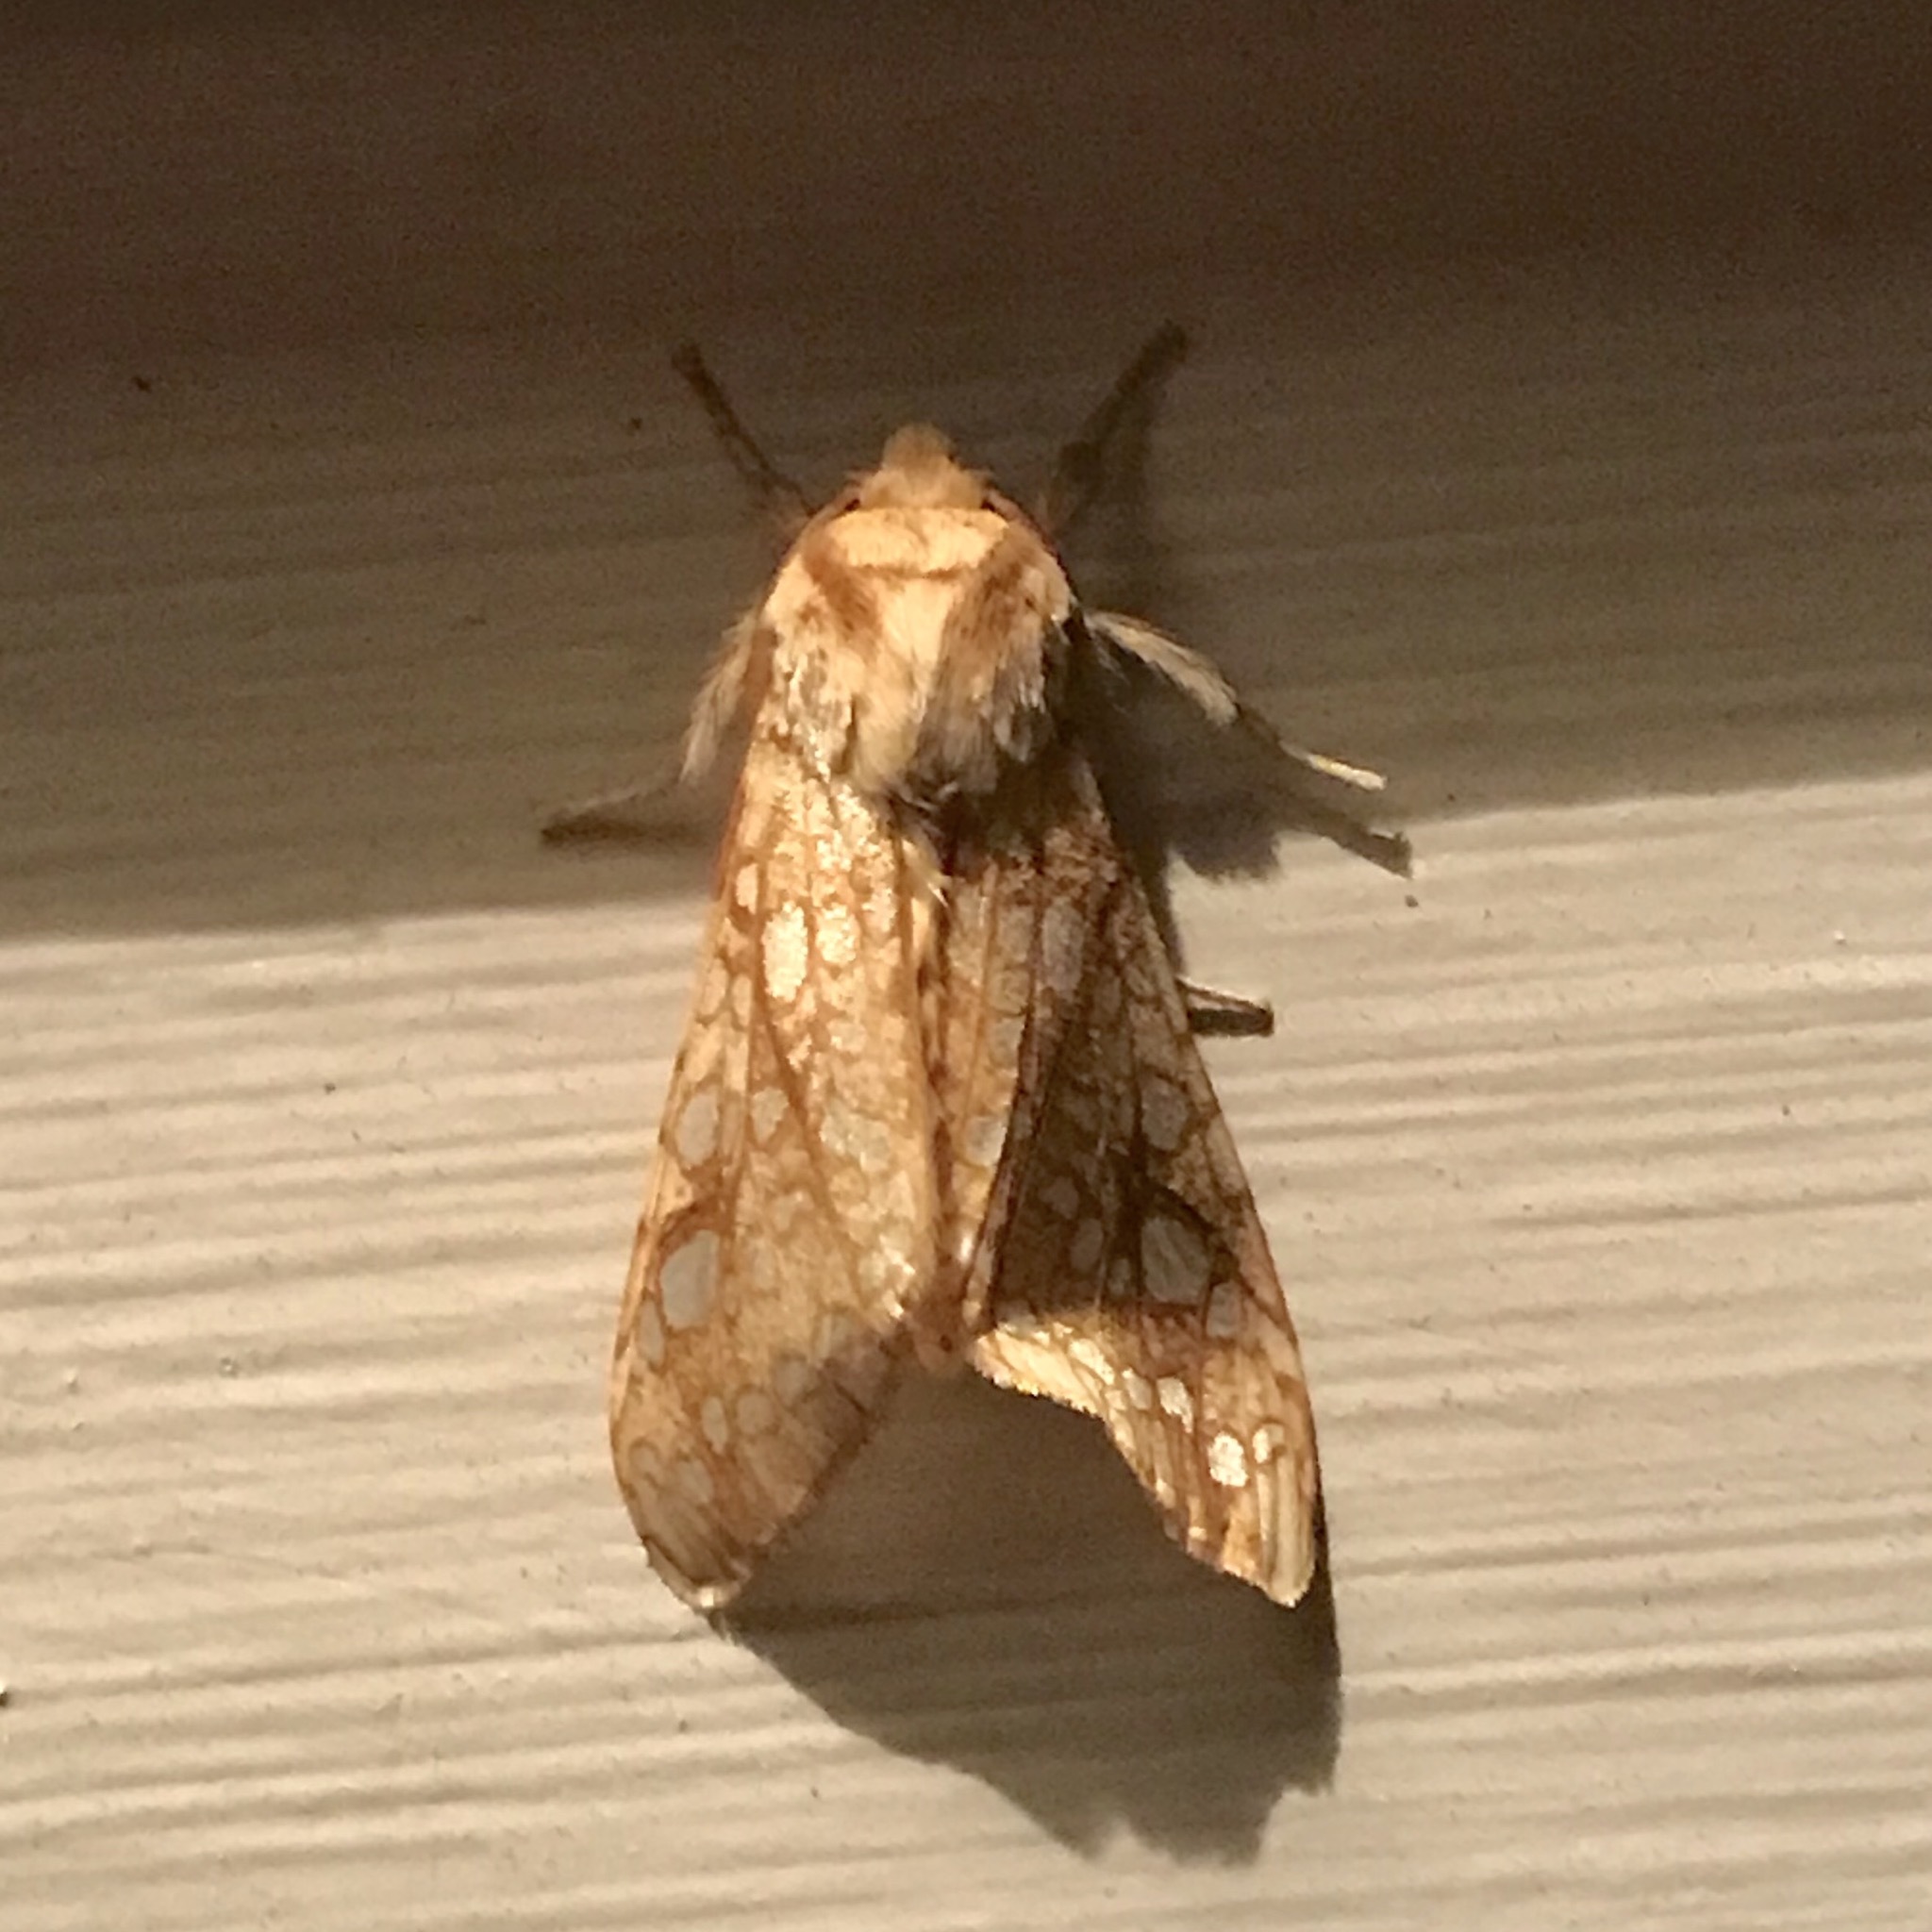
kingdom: Animalia
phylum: Arthropoda
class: Insecta
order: Lepidoptera
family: Erebidae
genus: Lophocampa
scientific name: Lophocampa caryae
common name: Hickory tussock moth
